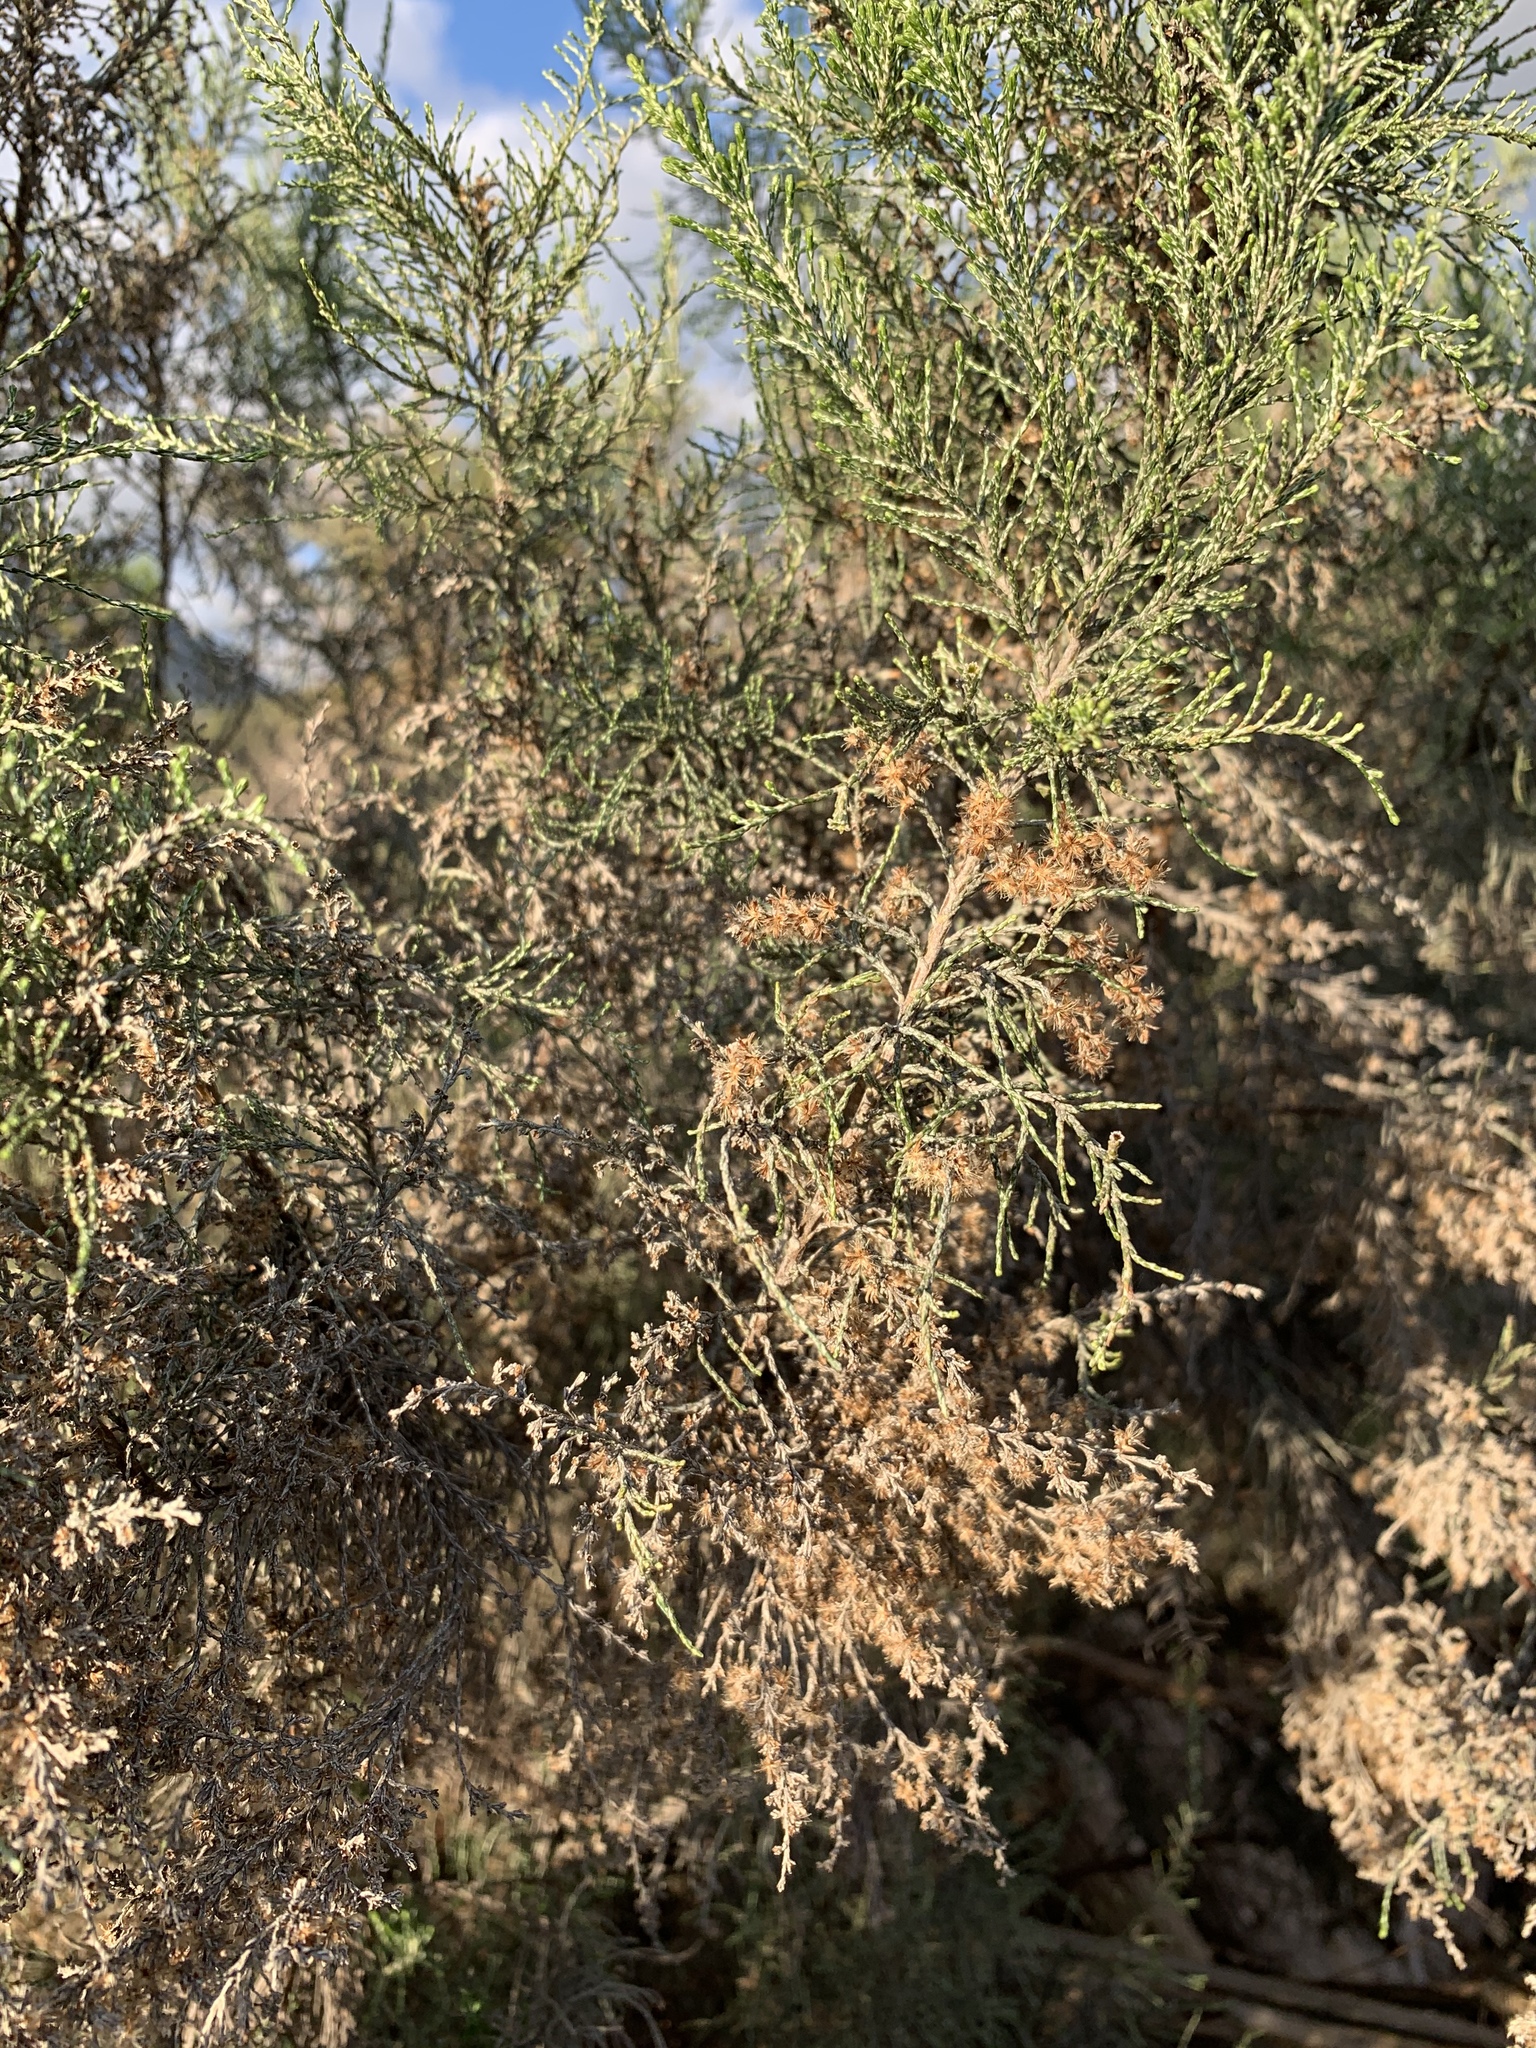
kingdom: Plantae
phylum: Tracheophyta
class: Magnoliopsida
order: Asterales
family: Asteraceae
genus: Dicerothamnus
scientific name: Dicerothamnus rhinocerotis
